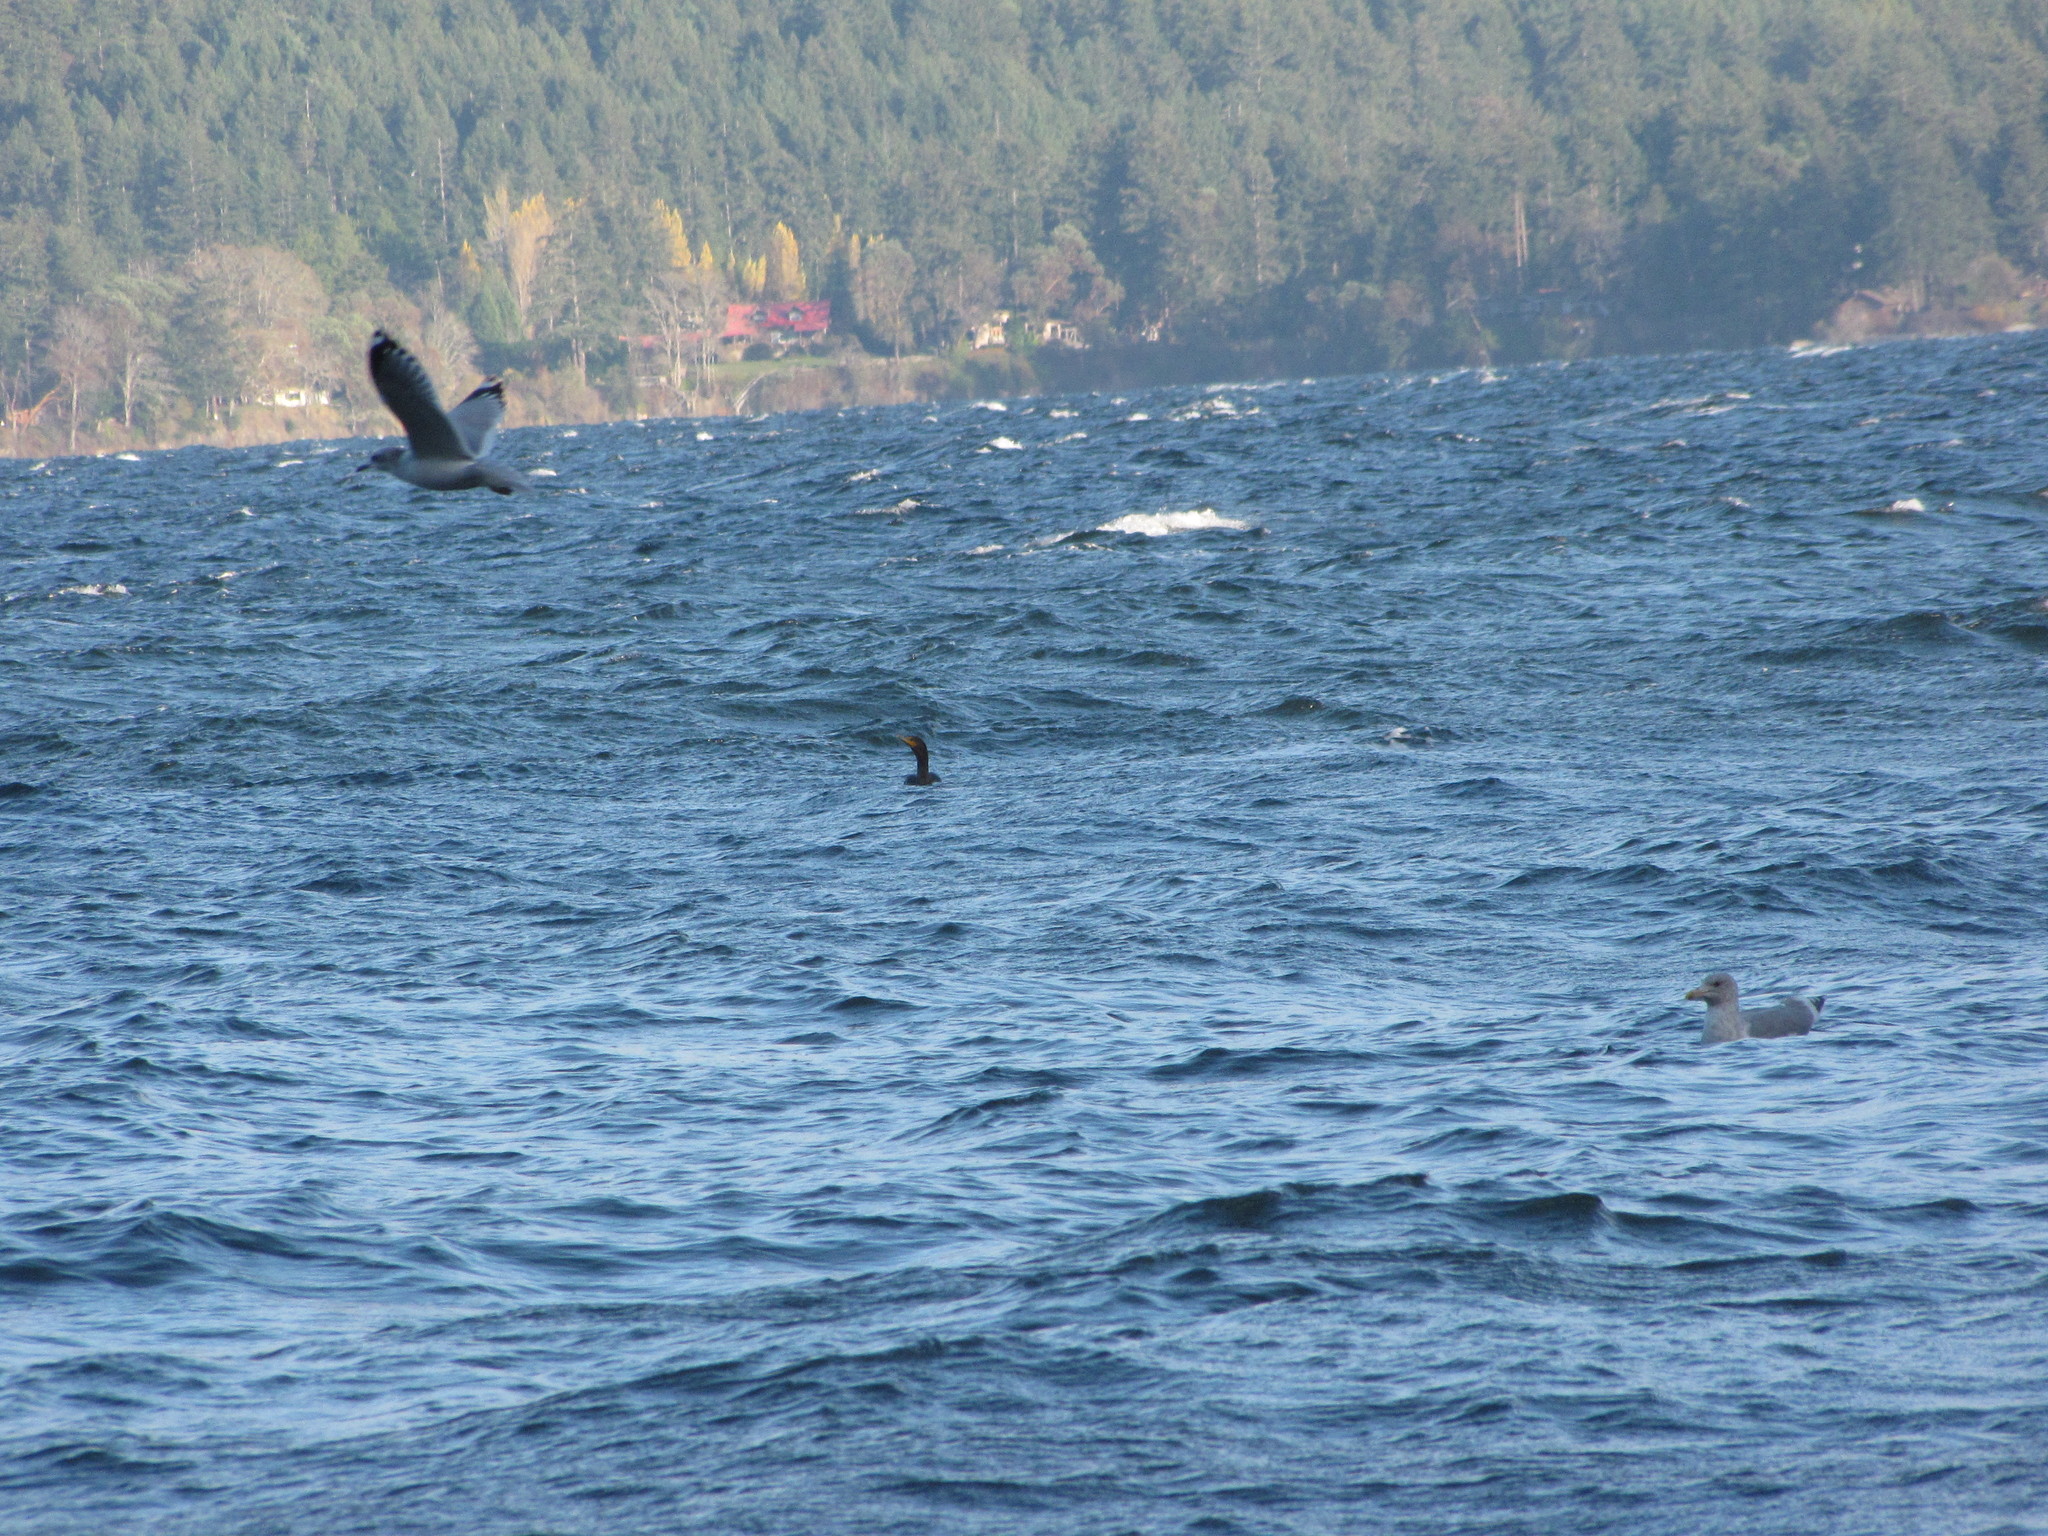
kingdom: Animalia
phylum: Chordata
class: Aves
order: Charadriiformes
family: Laridae
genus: Larus
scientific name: Larus brachyrhynchus
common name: Short-billed gull
